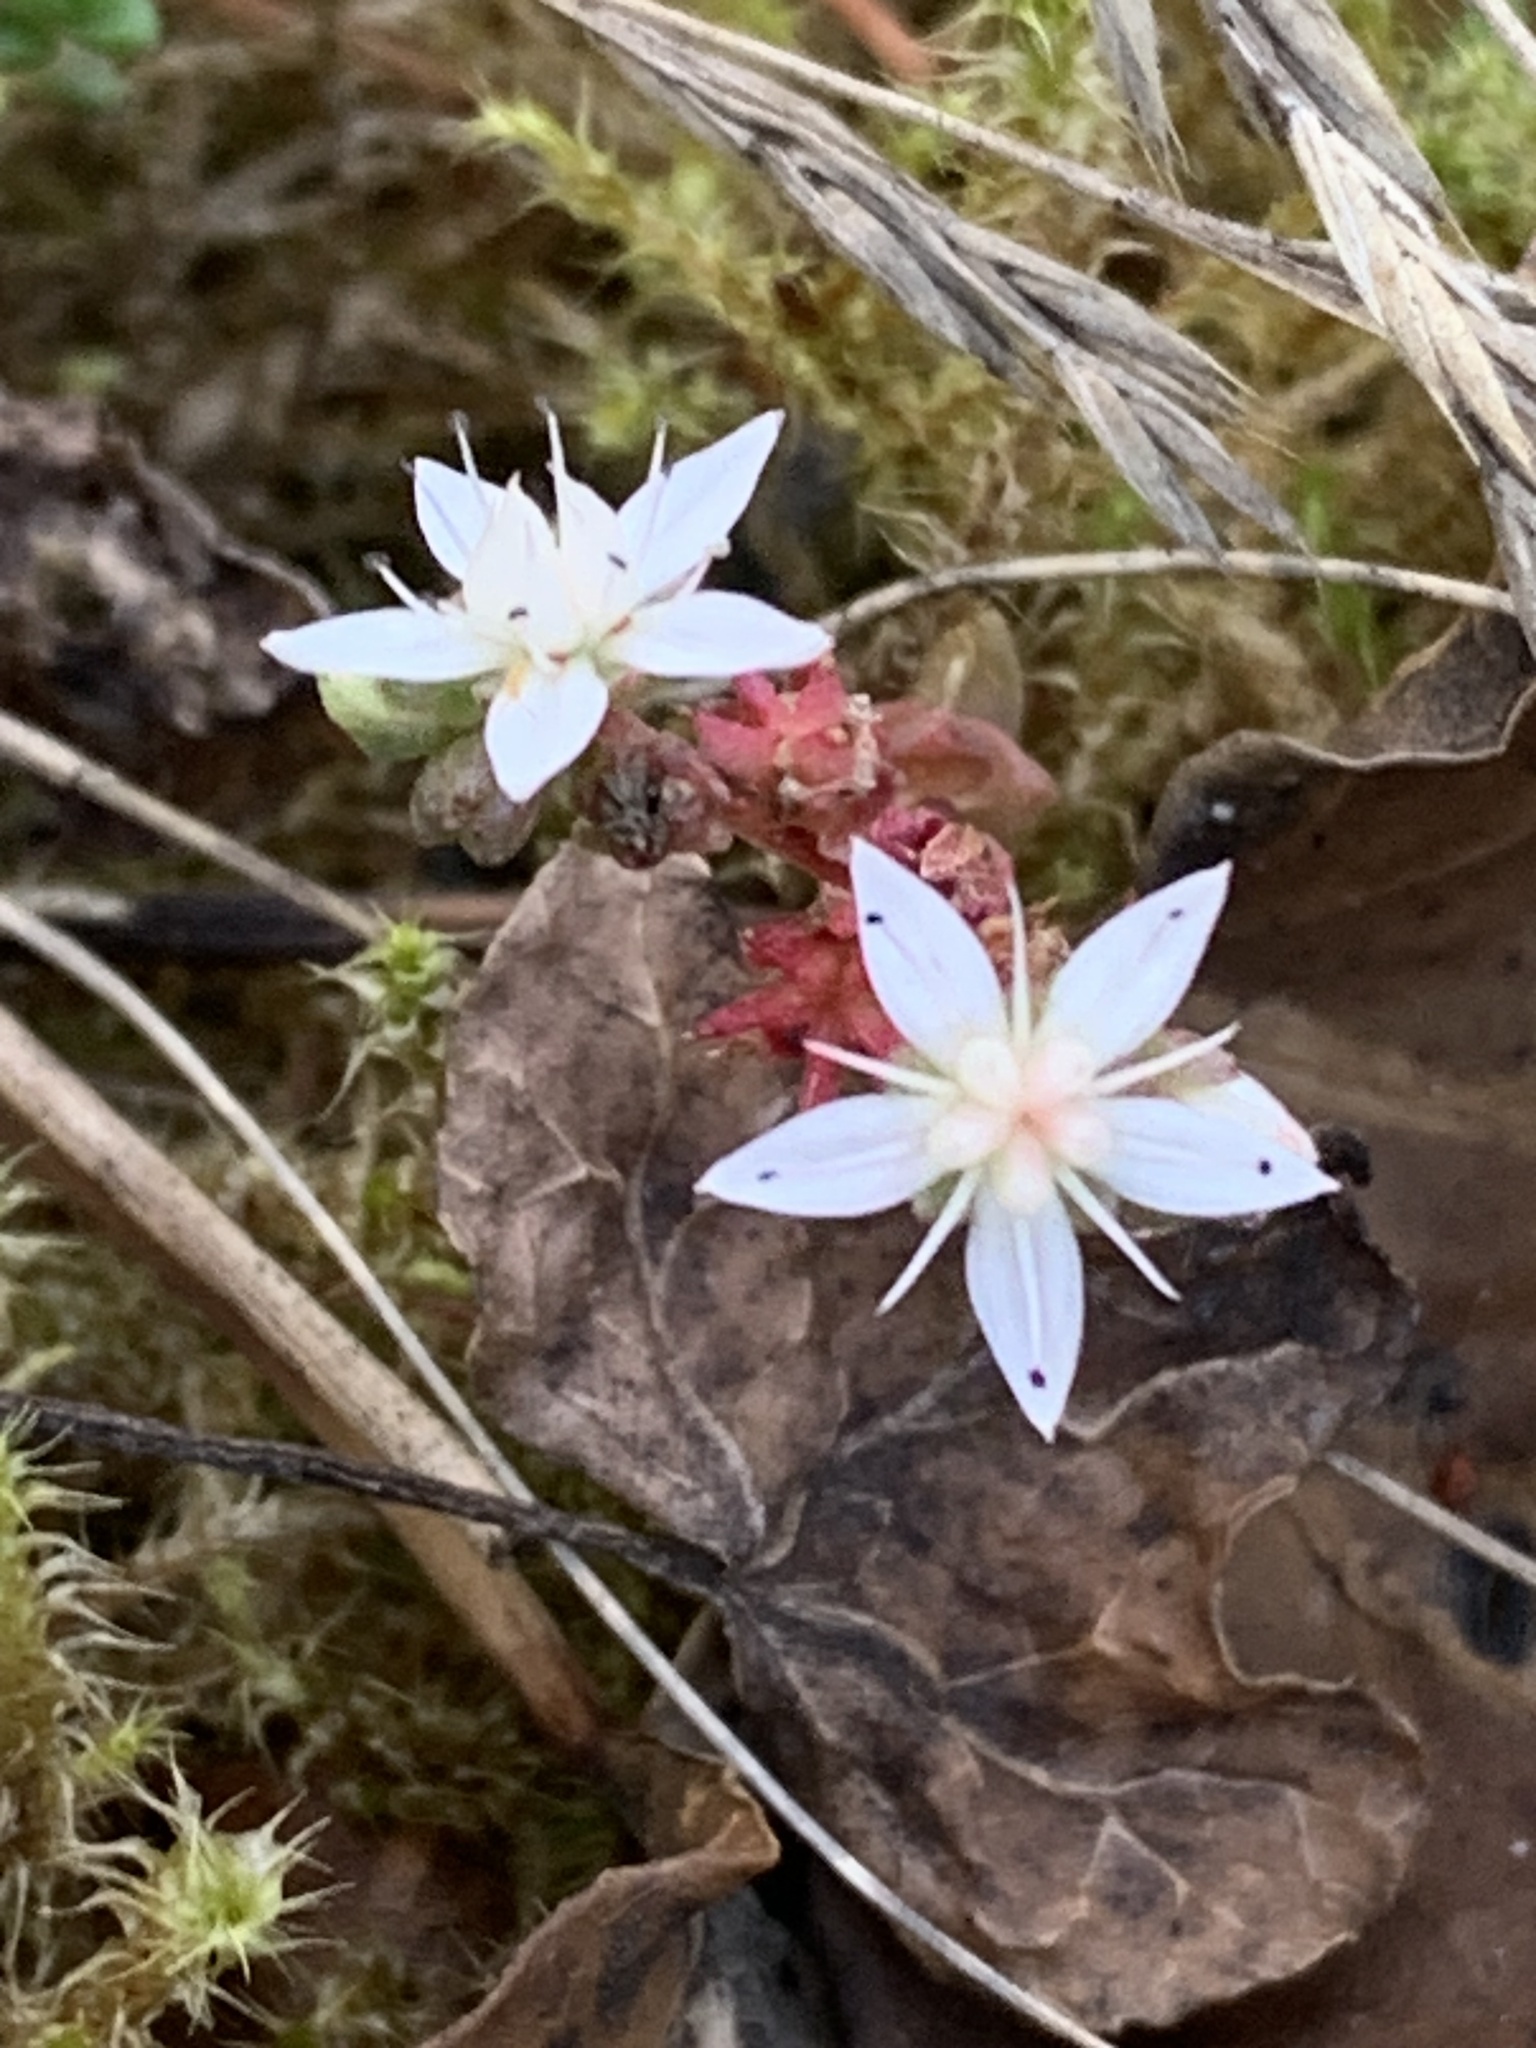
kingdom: Plantae
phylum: Tracheophyta
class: Magnoliopsida
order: Saxifragales
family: Crassulaceae
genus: Sedum
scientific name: Sedum anglicum
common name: English stonecrop
